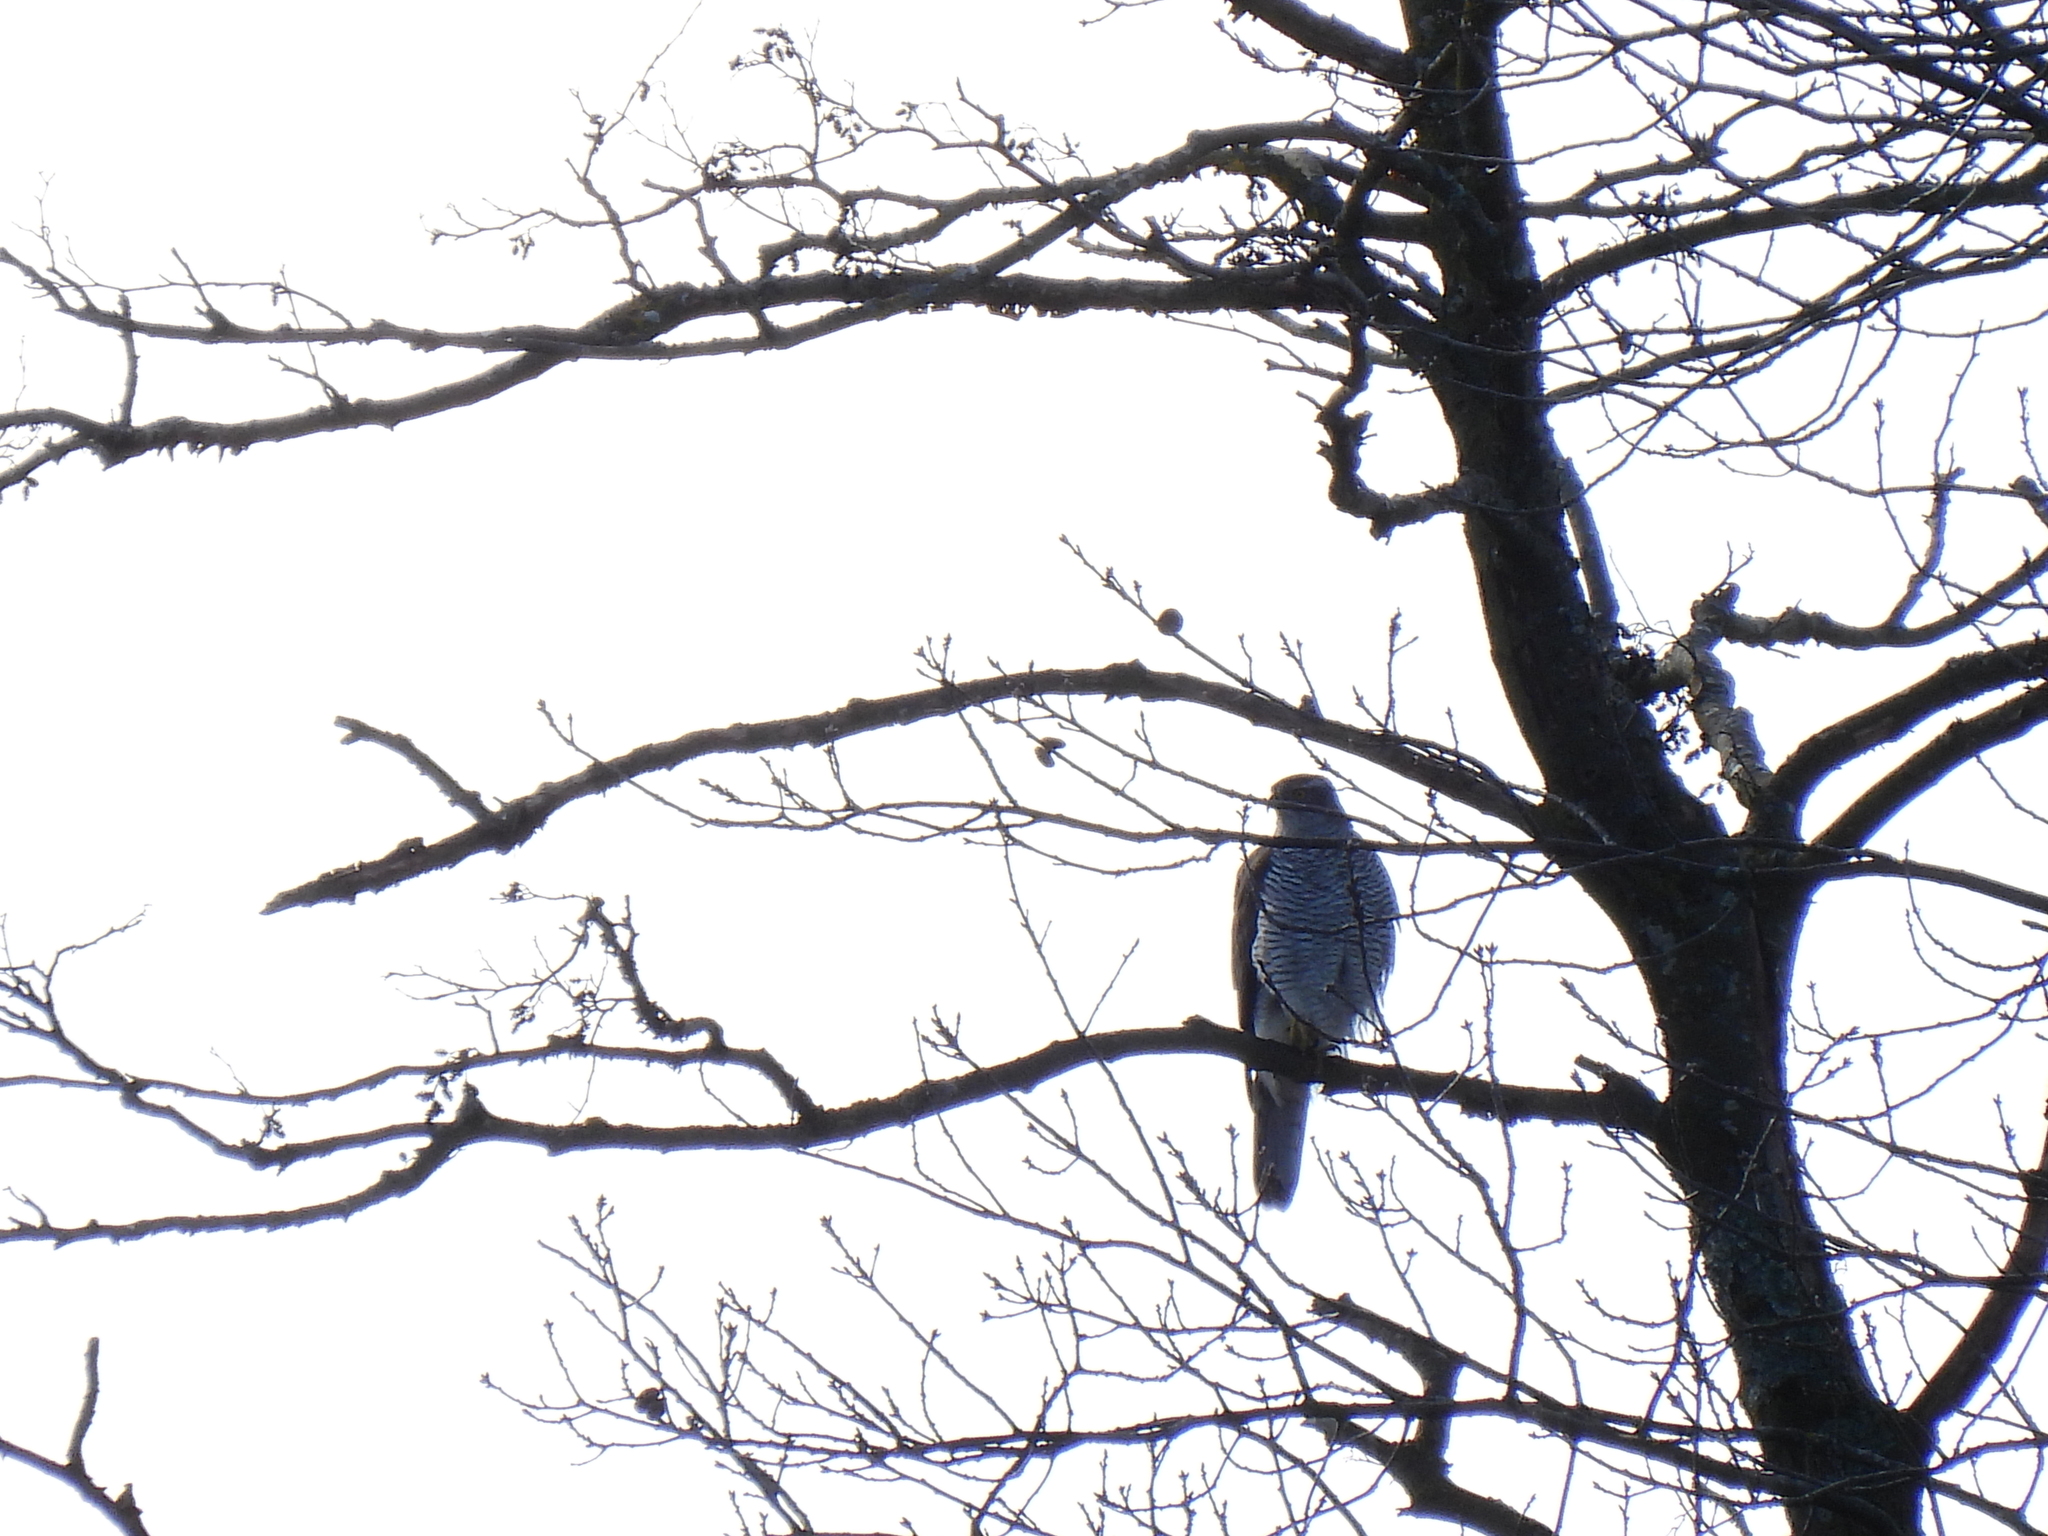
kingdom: Animalia
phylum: Chordata
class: Aves
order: Accipitriformes
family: Accipitridae
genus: Accipiter
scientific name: Accipiter gentilis
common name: Northern goshawk
